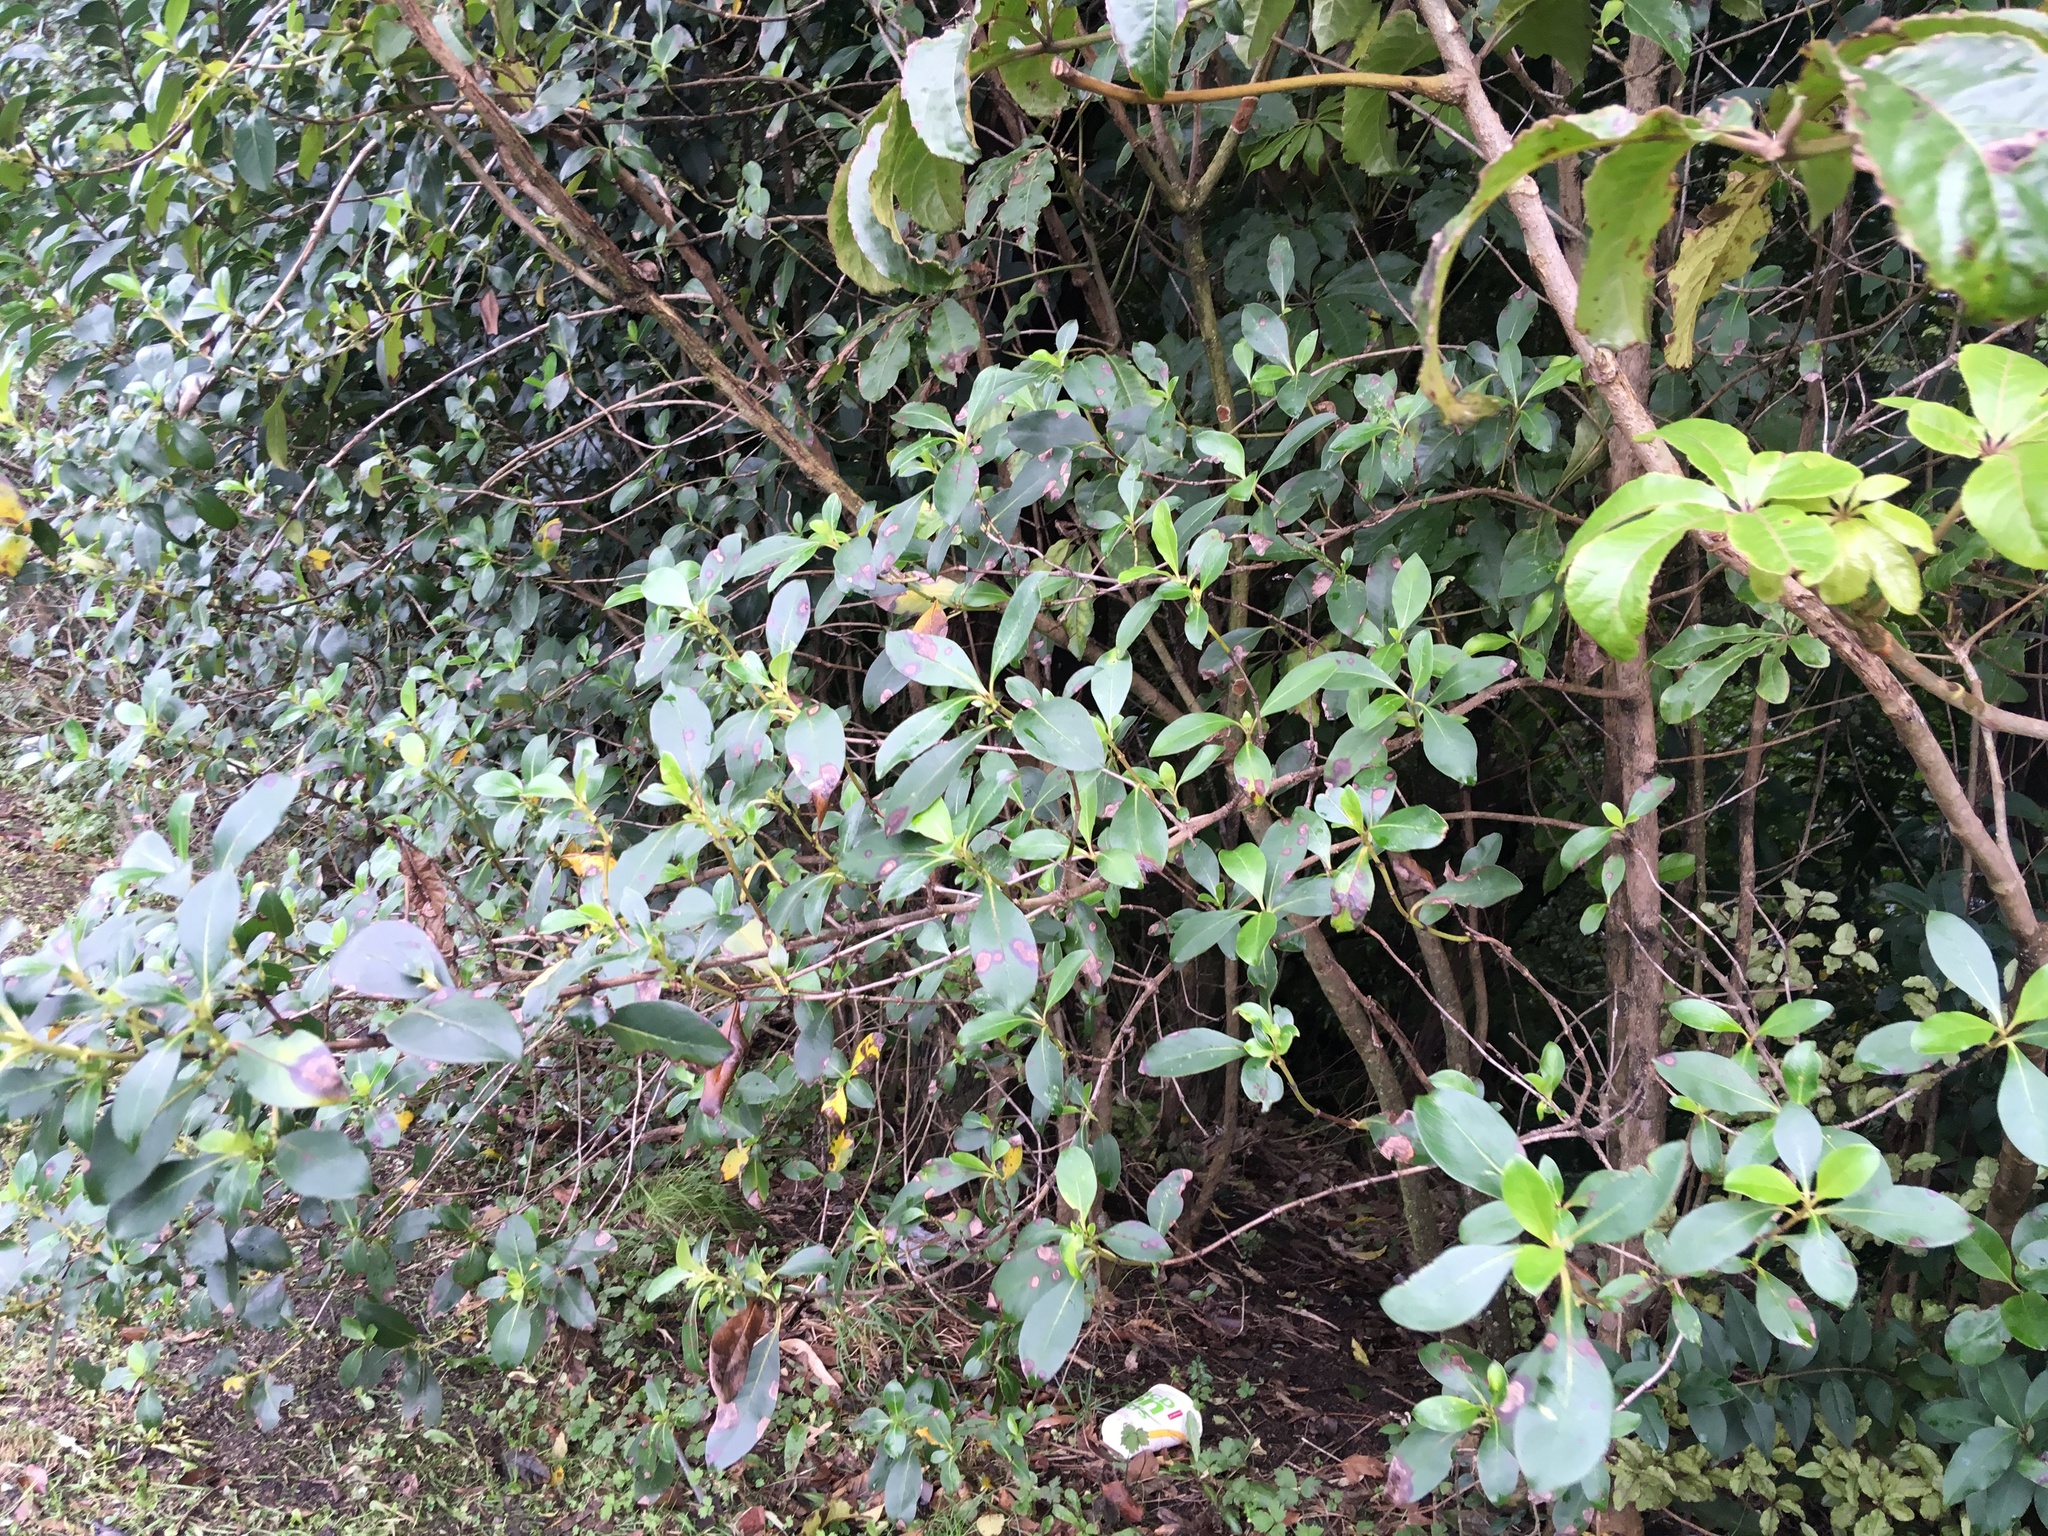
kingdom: Plantae
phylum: Tracheophyta
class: Magnoliopsida
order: Apiales
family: Araliaceae
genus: Schefflera
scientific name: Schefflera digitata
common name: Pate
